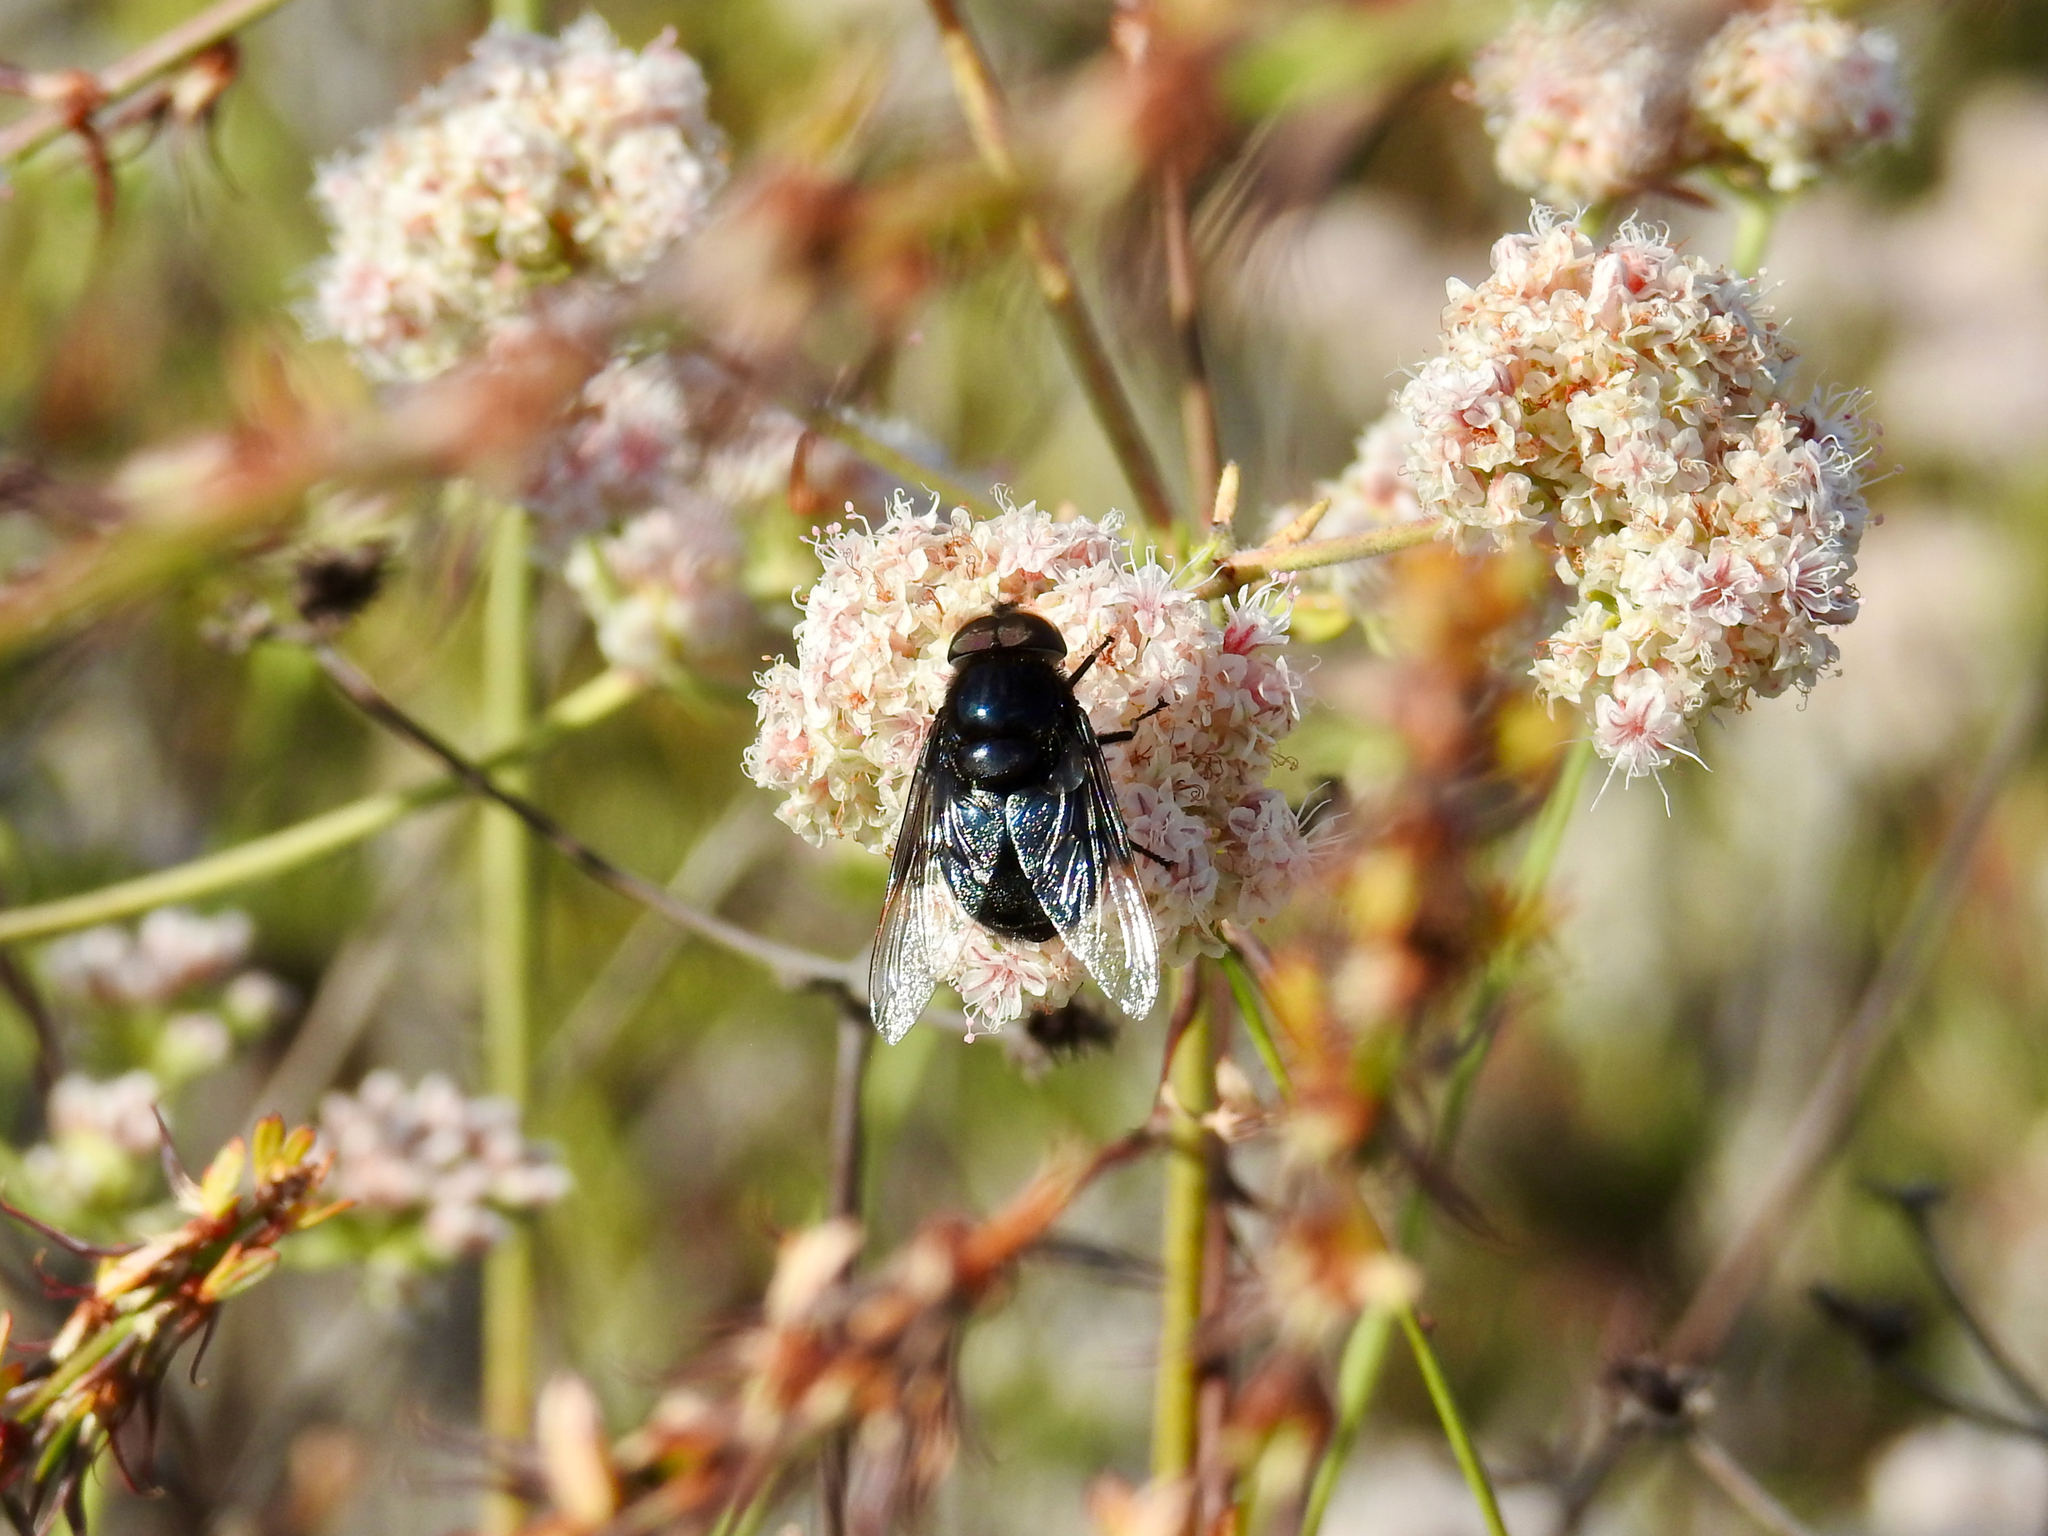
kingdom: Animalia
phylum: Arthropoda
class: Insecta
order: Diptera
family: Syrphidae
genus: Copestylum
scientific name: Copestylum mexicanum
